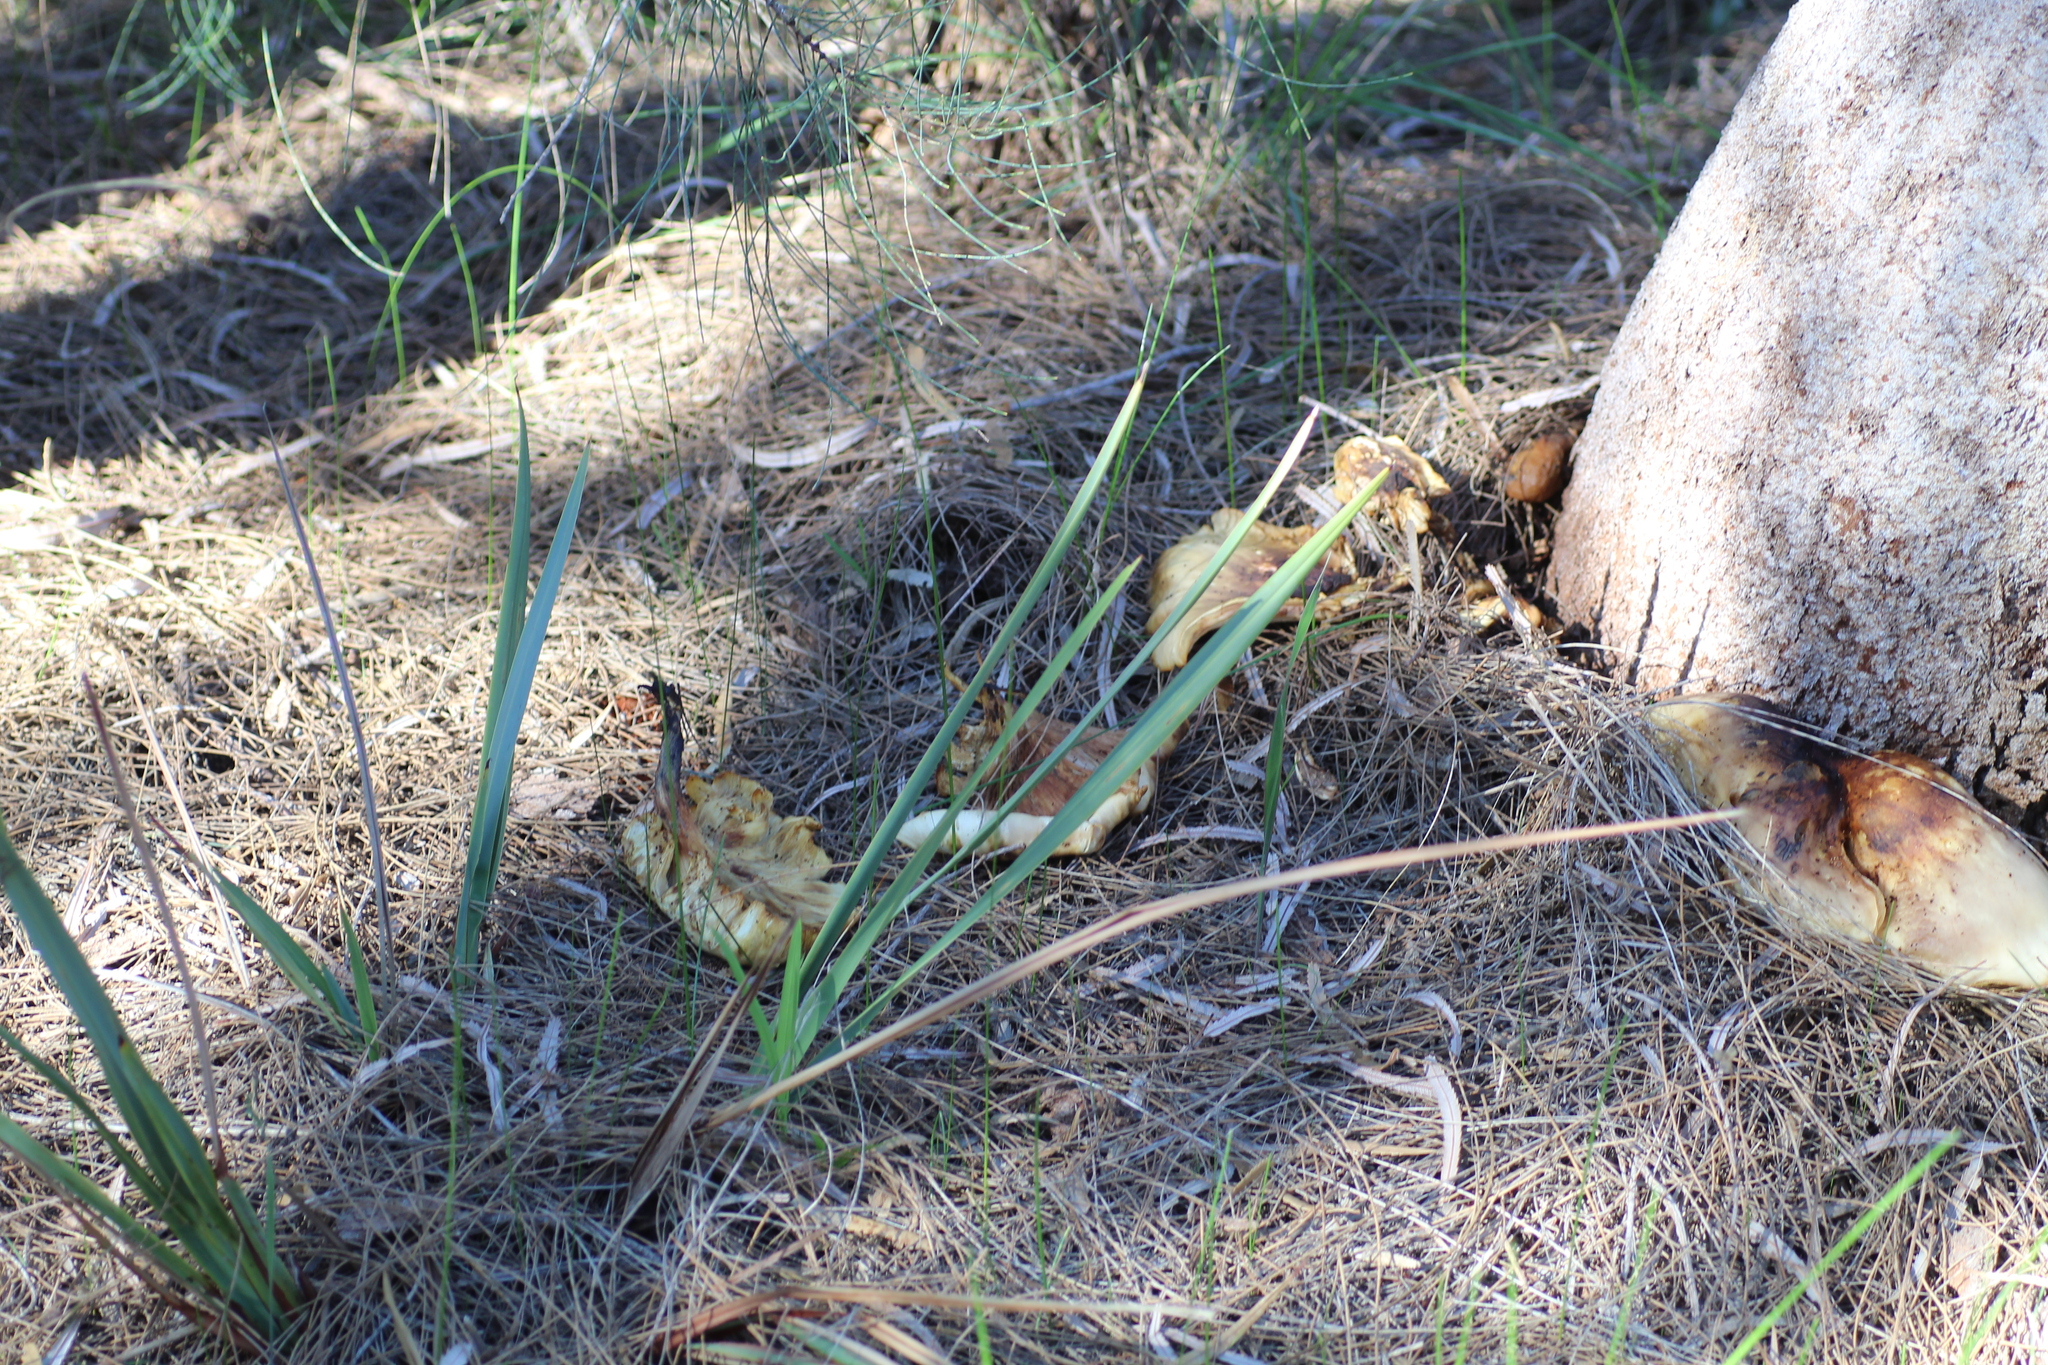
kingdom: Fungi
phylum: Basidiomycota
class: Agaricomycetes
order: Agaricales
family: Omphalotaceae
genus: Omphalotus
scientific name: Omphalotus nidiformis
